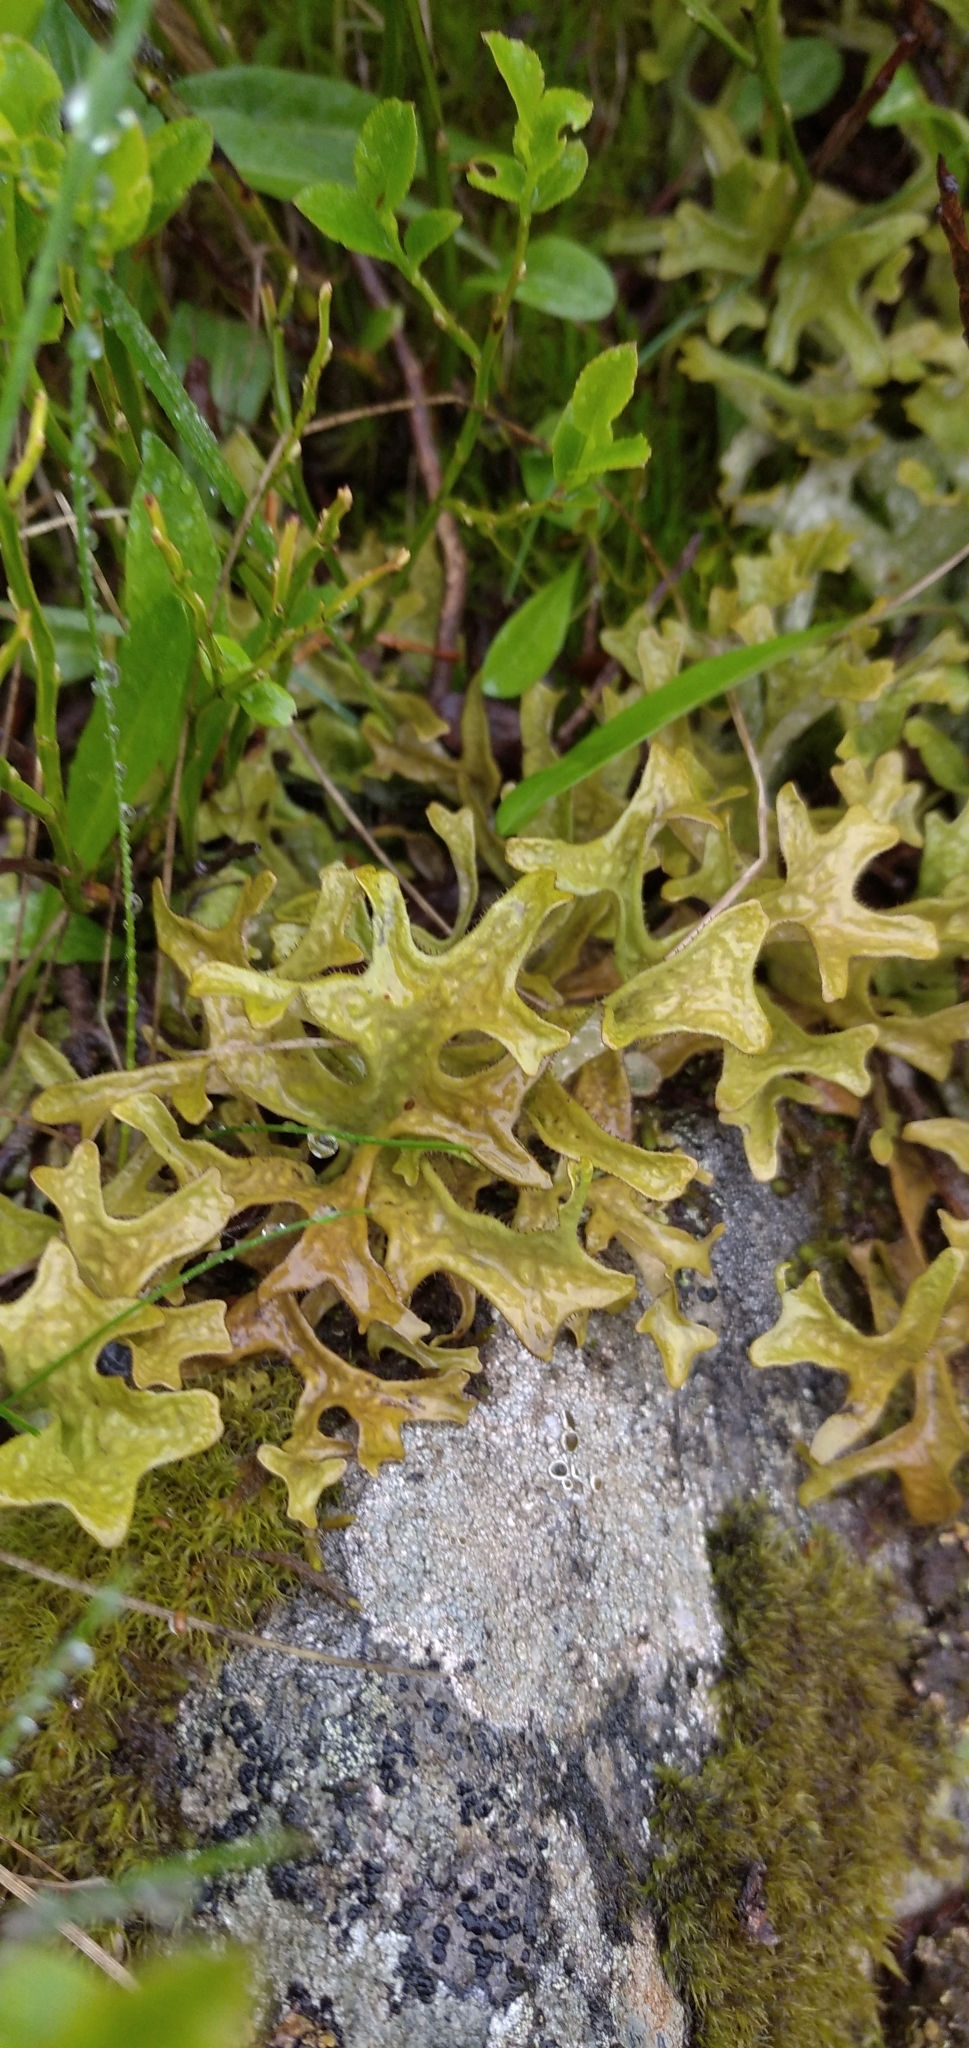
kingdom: Fungi
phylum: Ascomycota
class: Lecanoromycetes
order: Lecanorales
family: Parmeliaceae
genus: Cetraria
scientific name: Cetraria islandica
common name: Iceland lichen
